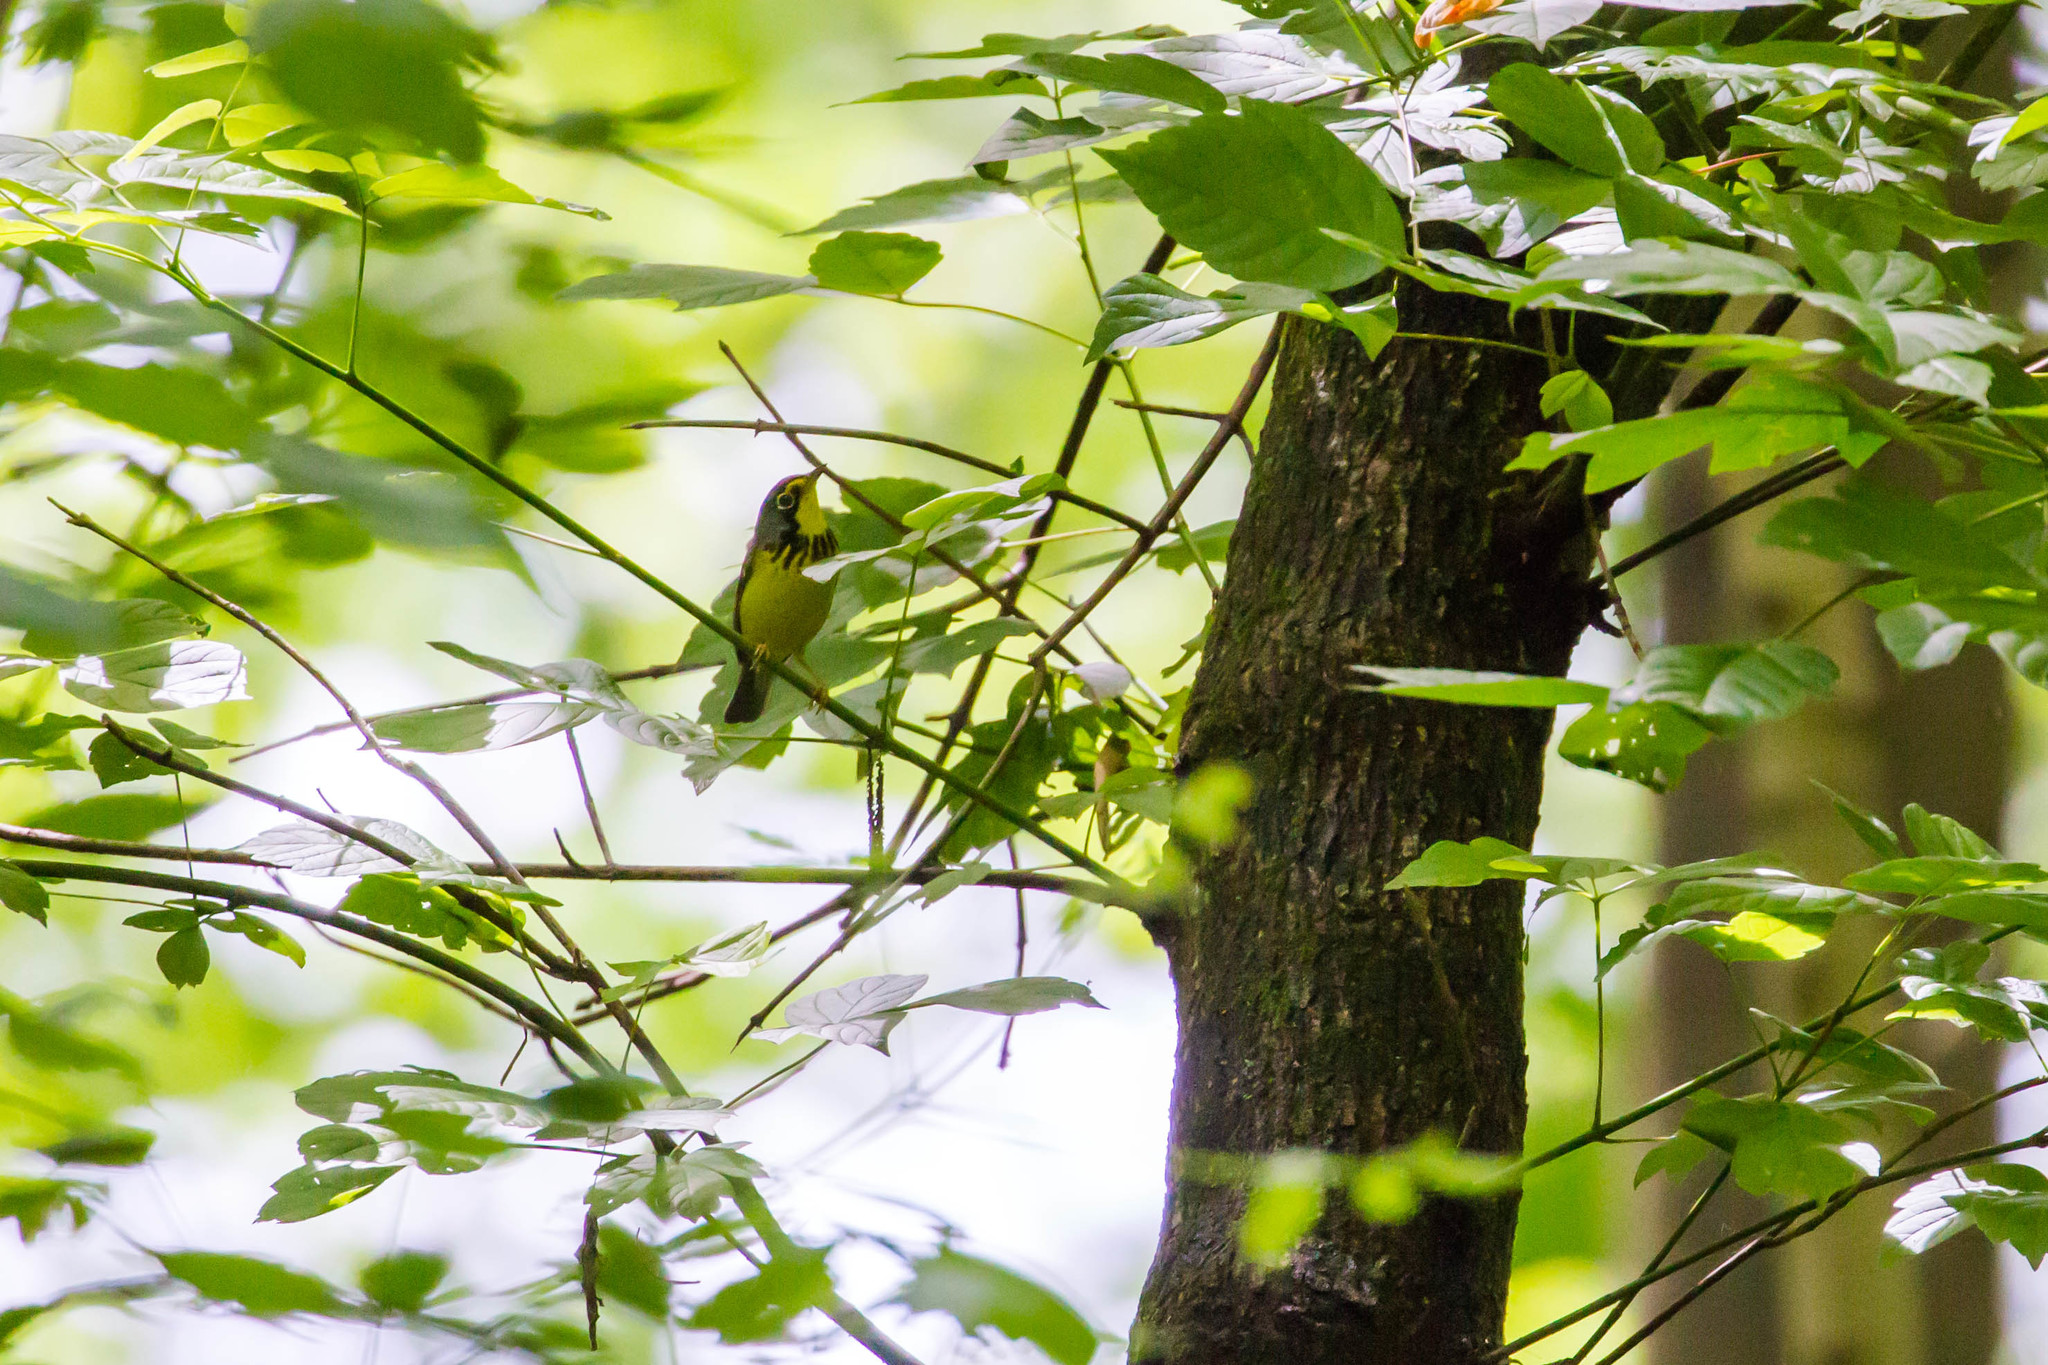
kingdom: Animalia
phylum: Chordata
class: Aves
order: Passeriformes
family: Parulidae
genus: Cardellina
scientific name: Cardellina canadensis
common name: Canada warbler
